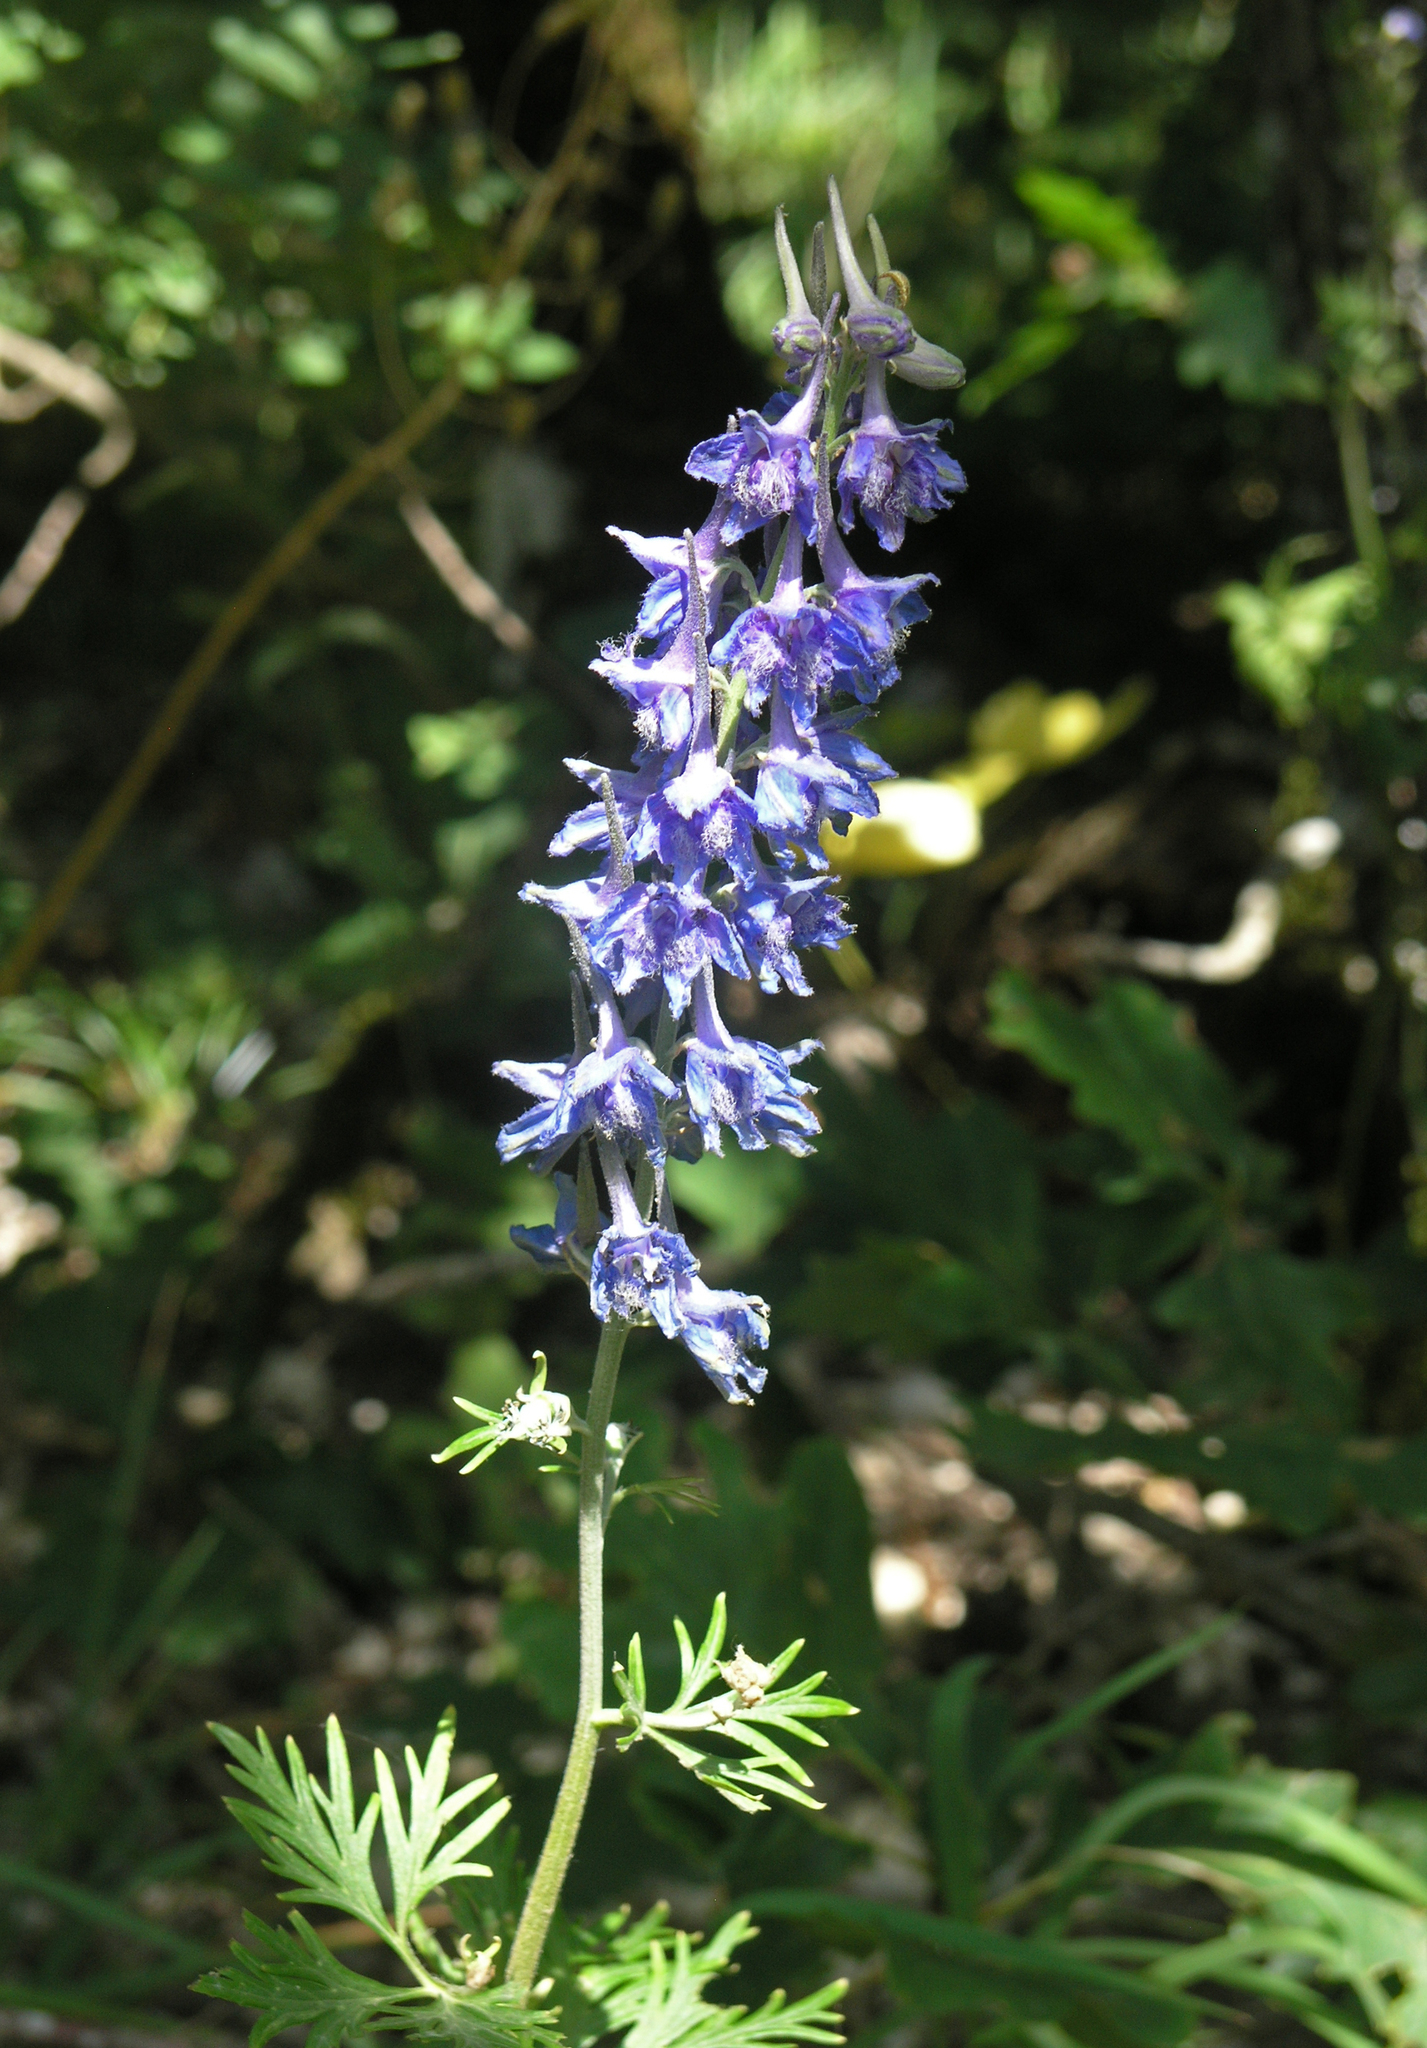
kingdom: Plantae
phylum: Tracheophyta
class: Magnoliopsida
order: Ranunculales
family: Ranunculaceae
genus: Delphinium
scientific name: Delphinium schmalhausenii
